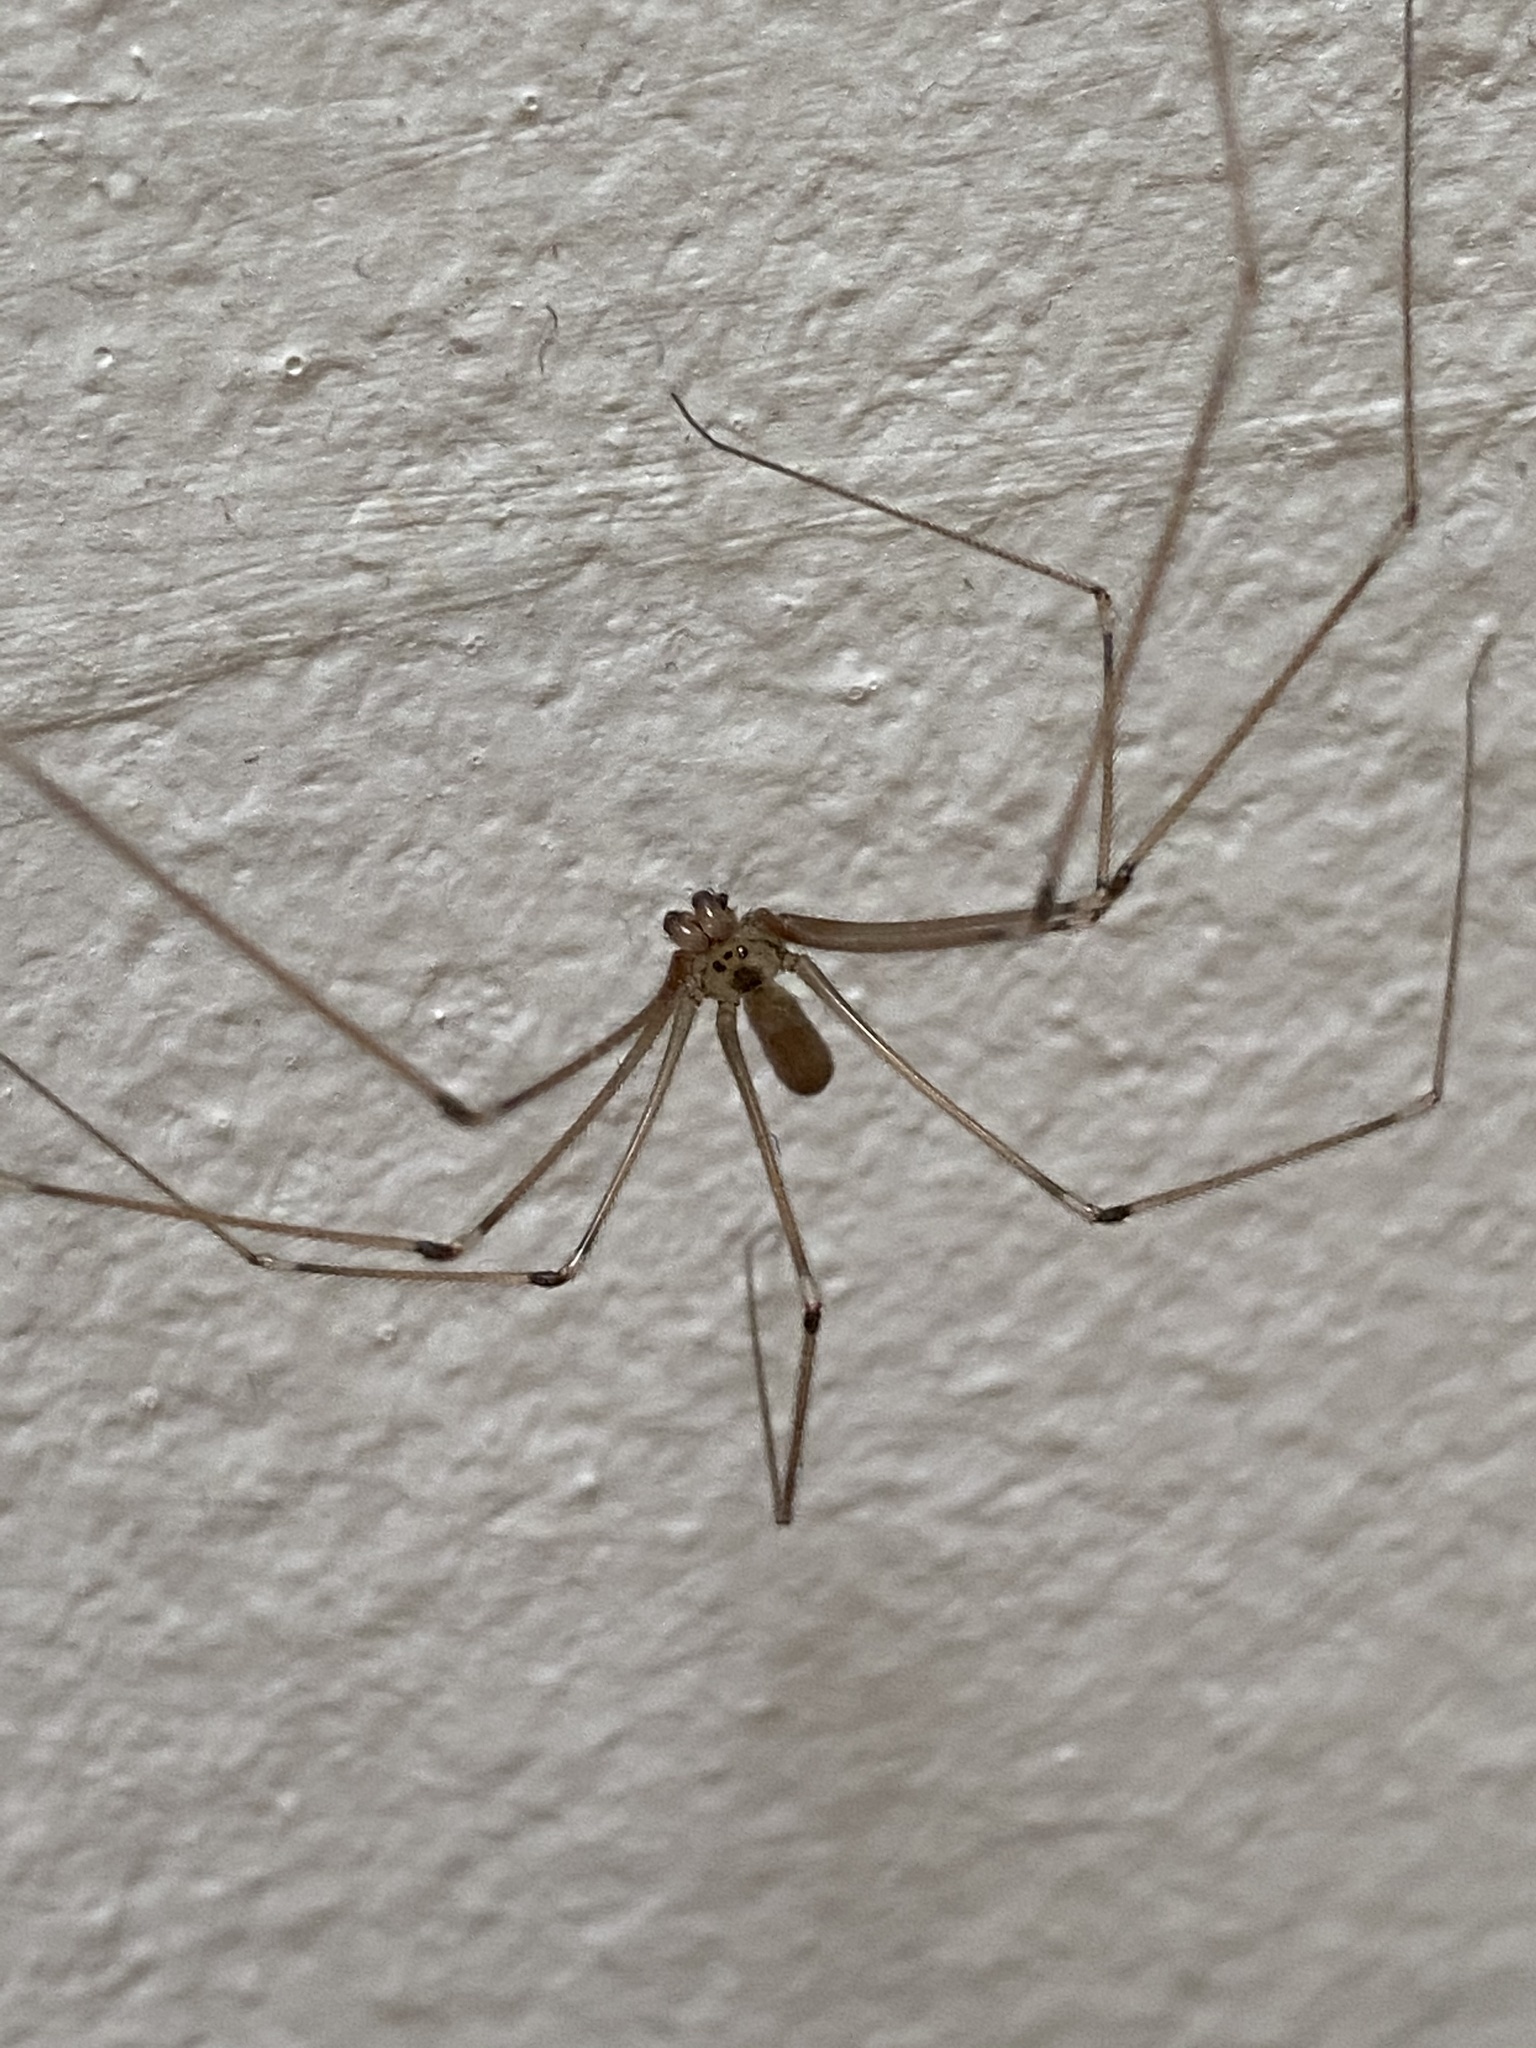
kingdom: Animalia
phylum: Arthropoda
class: Arachnida
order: Araneae
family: Pholcidae
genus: Pholcus
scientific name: Pholcus phalangioides
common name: Longbodied cellar spider
